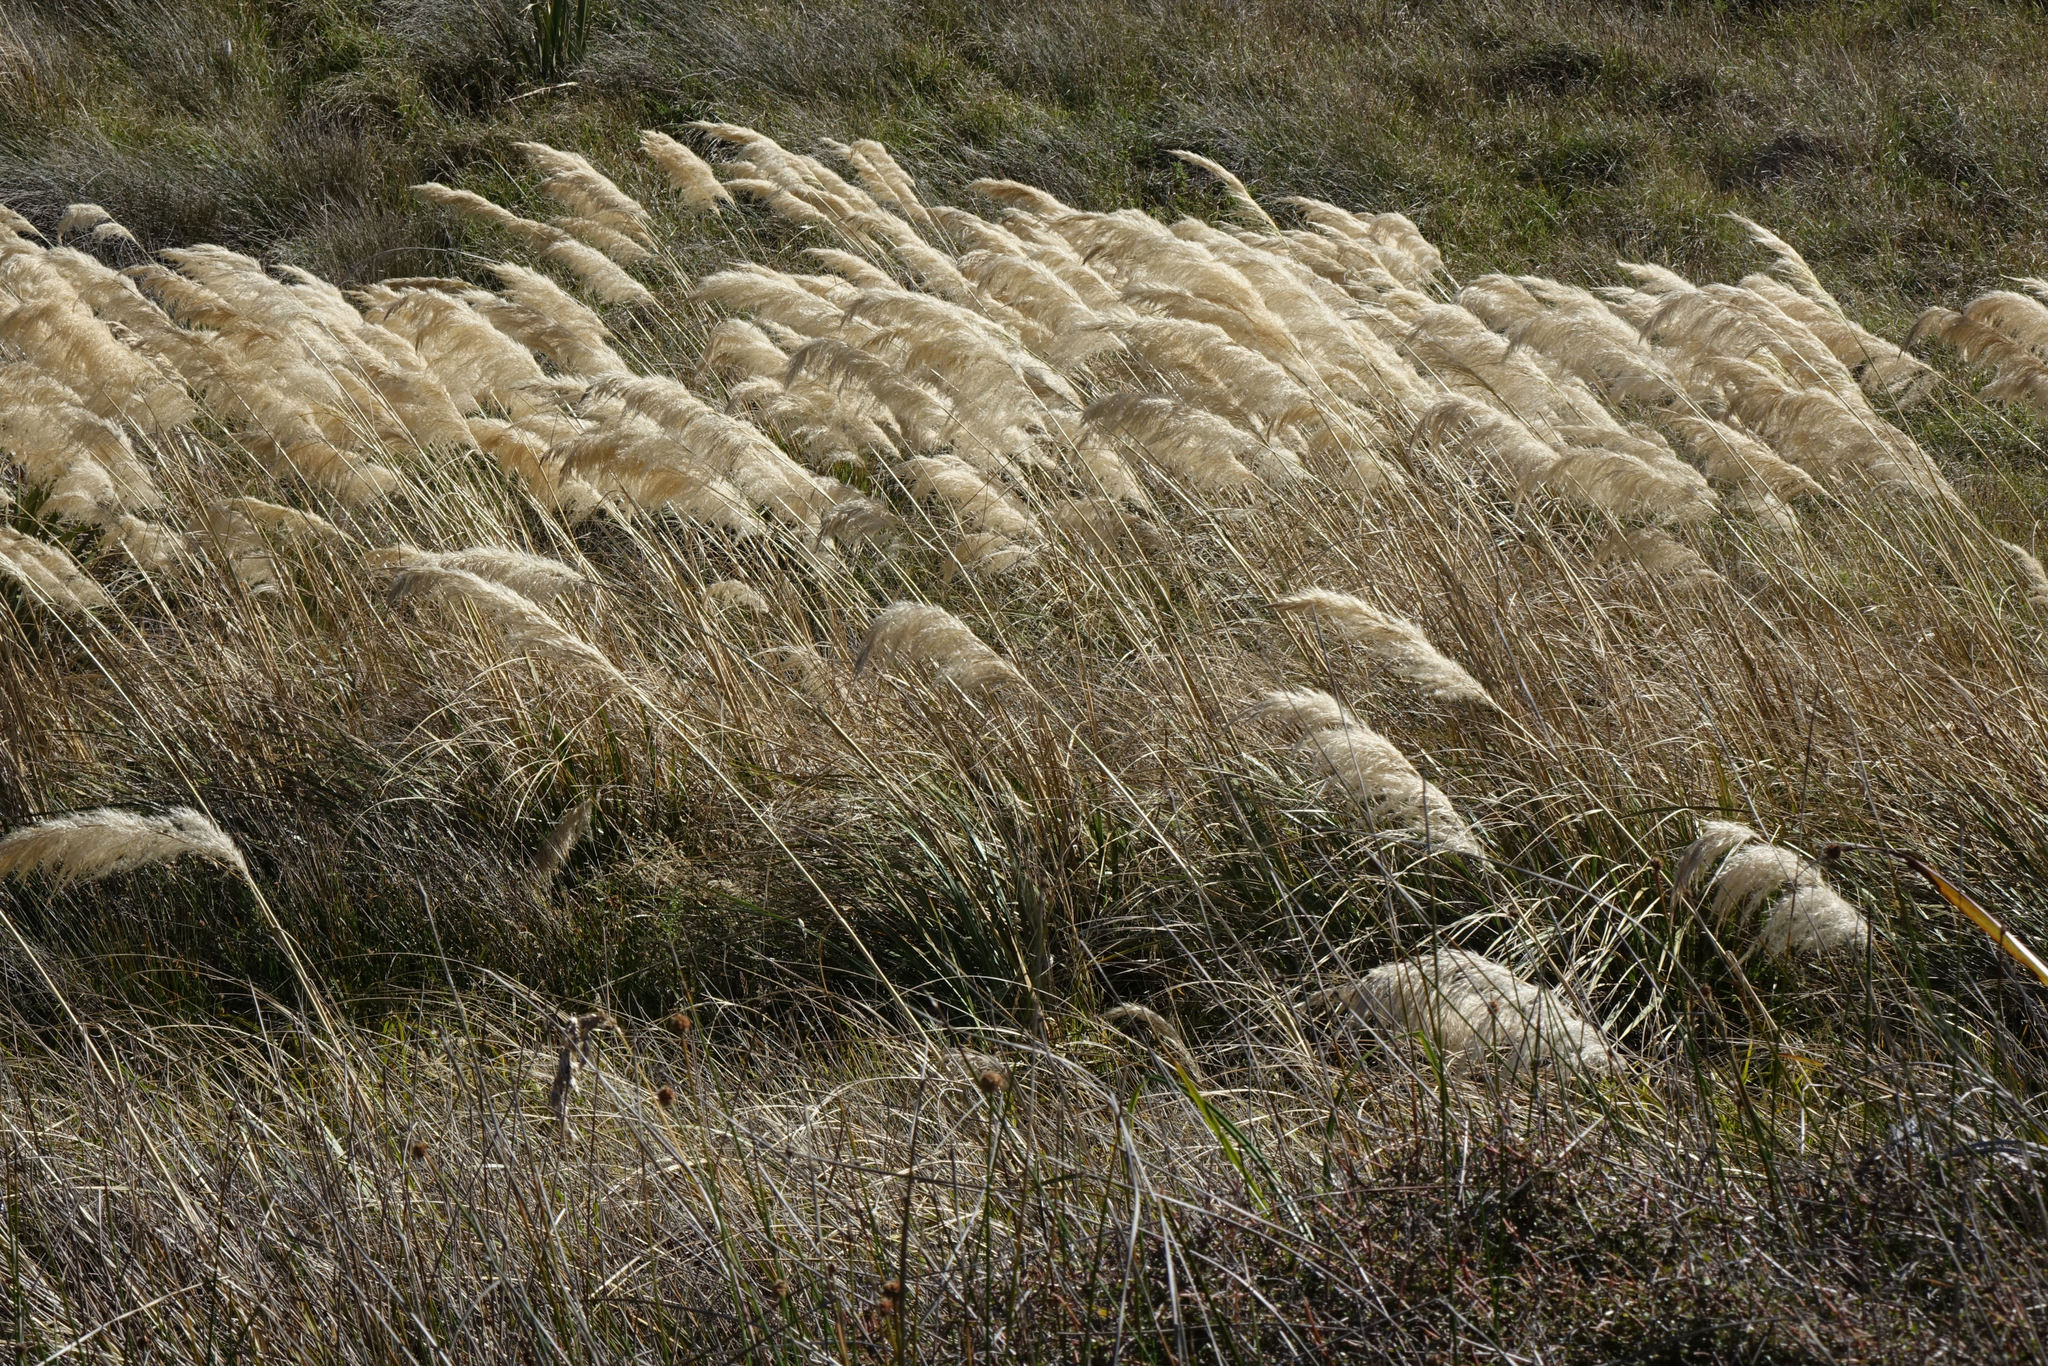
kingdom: Plantae
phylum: Tracheophyta
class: Liliopsida
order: Poales
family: Poaceae
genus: Austroderia
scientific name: Austroderia richardii
